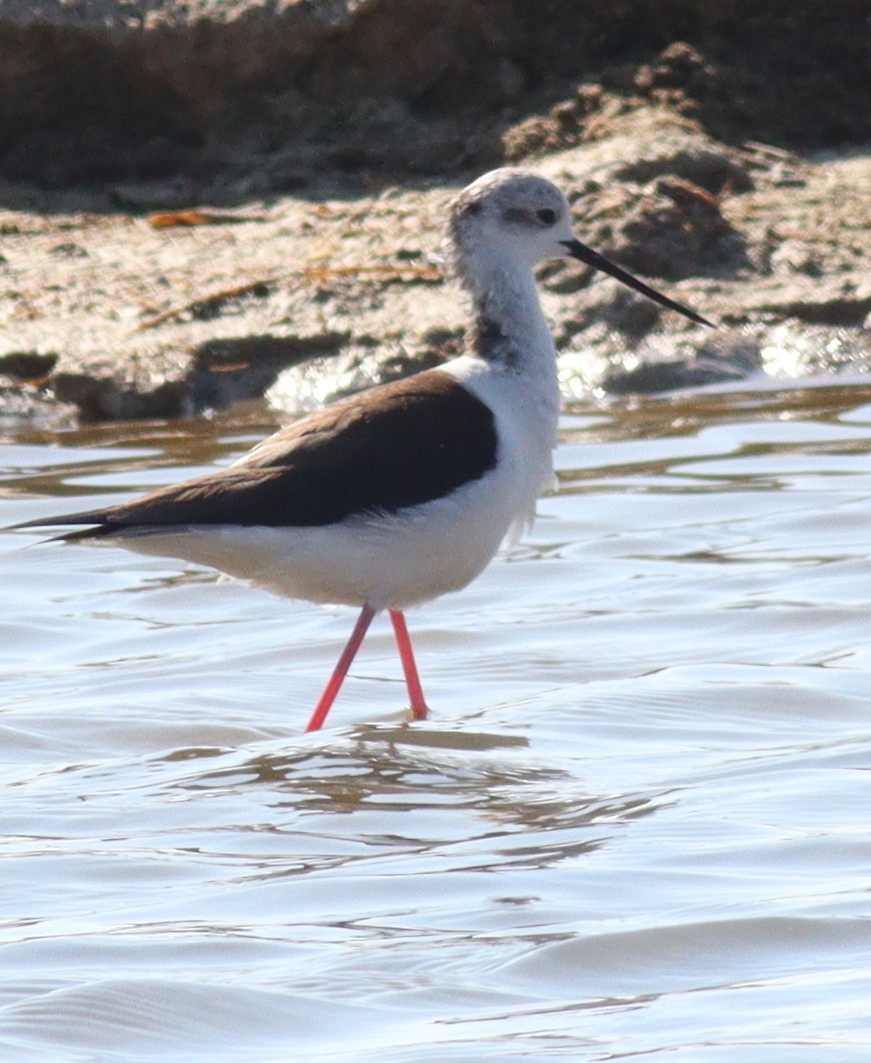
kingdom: Animalia
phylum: Chordata
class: Aves
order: Charadriiformes
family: Recurvirostridae
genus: Himantopus
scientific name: Himantopus himantopus
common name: Black-winged stilt
